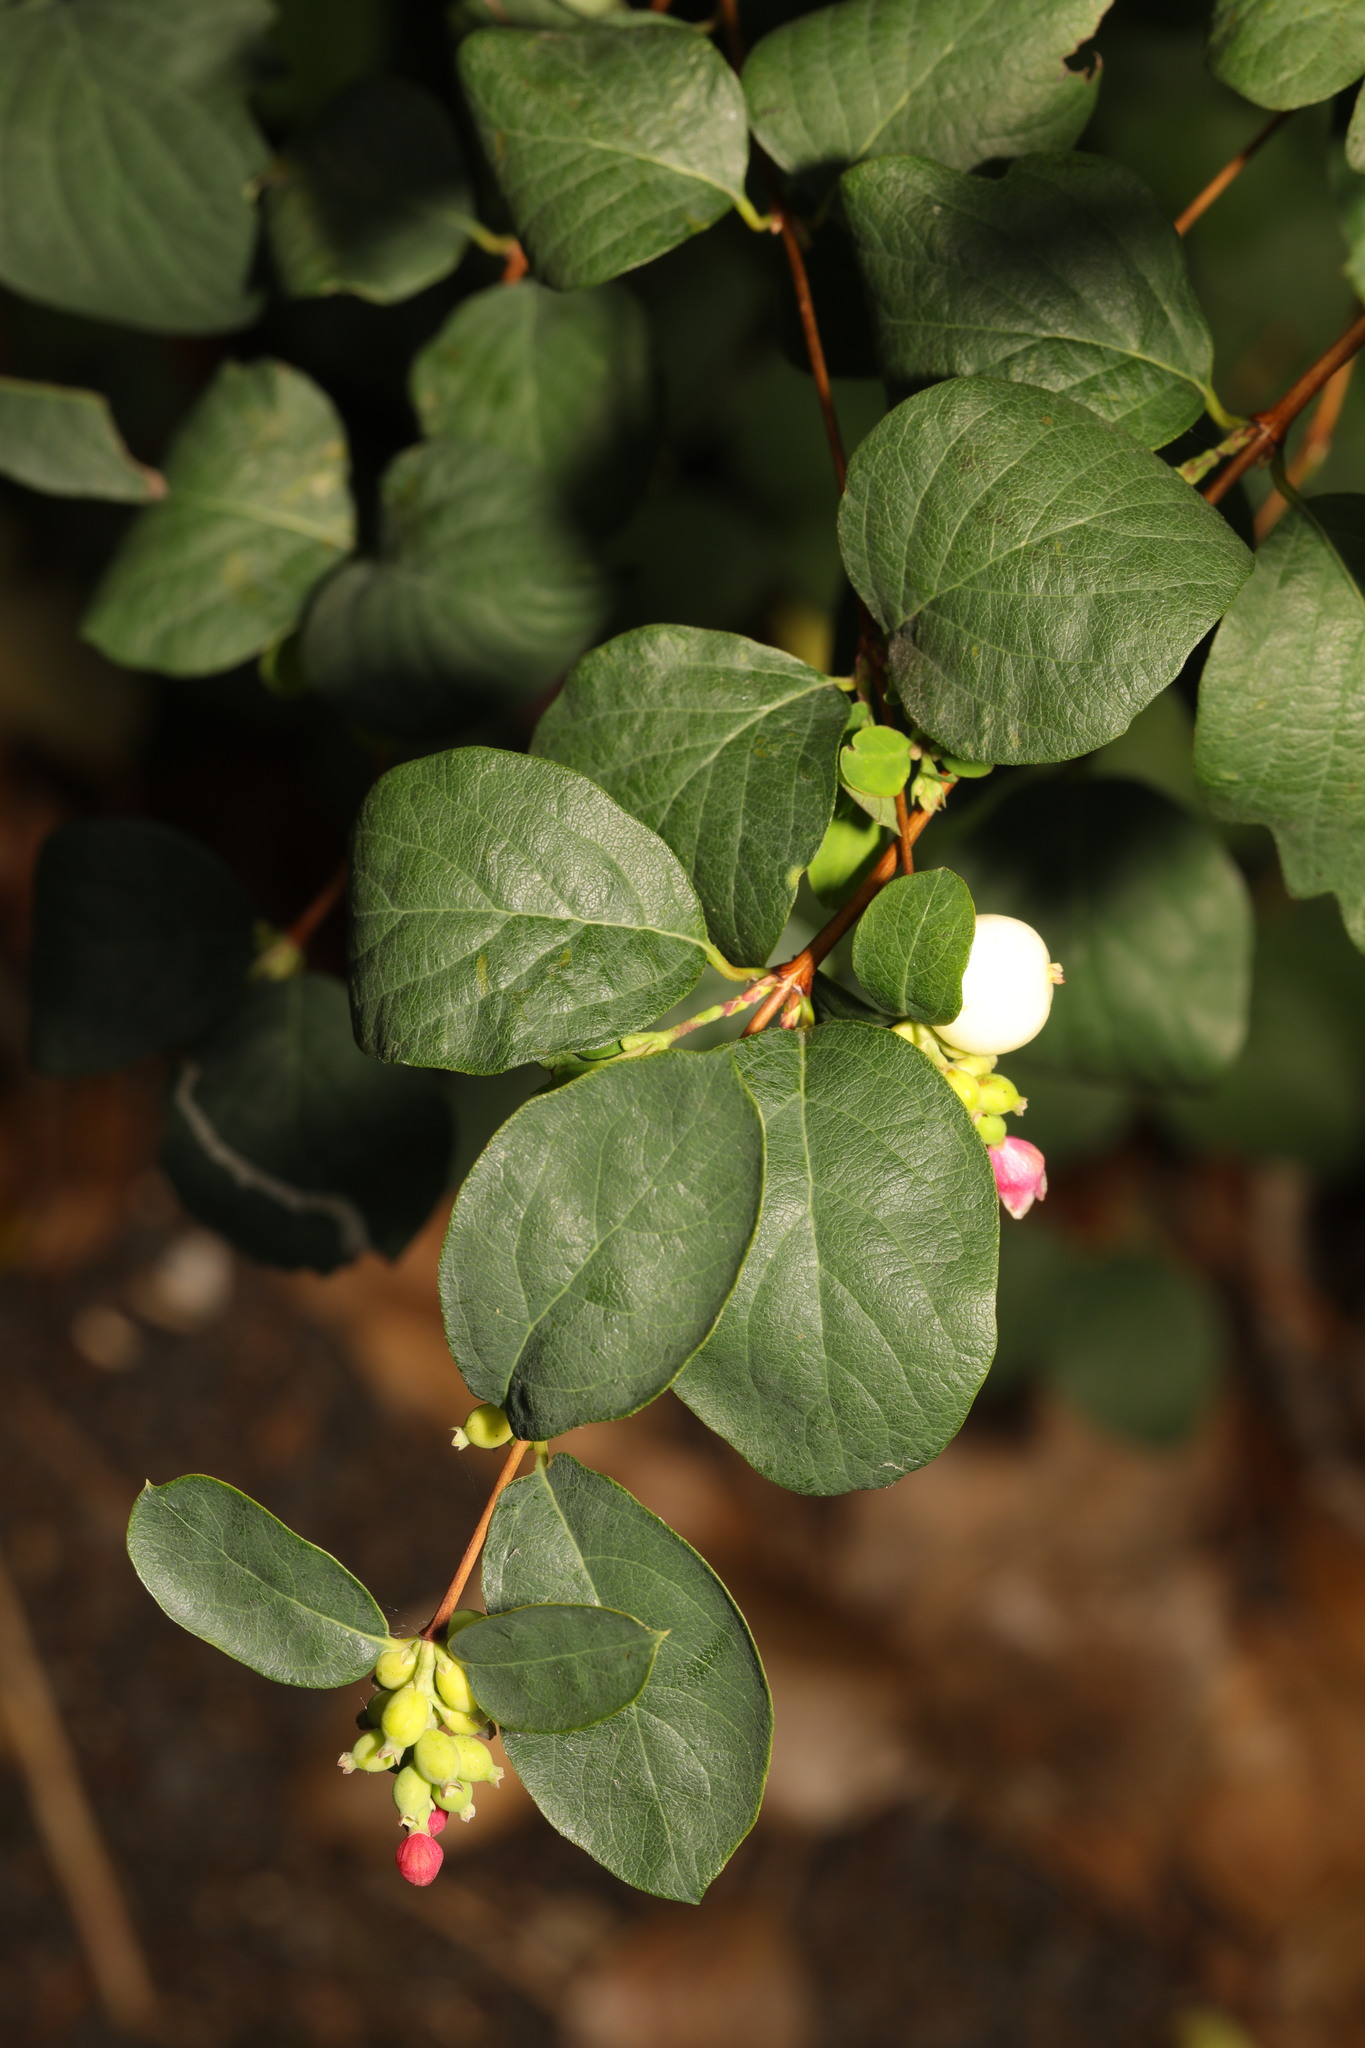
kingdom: Plantae
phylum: Tracheophyta
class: Magnoliopsida
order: Dipsacales
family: Caprifoliaceae
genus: Symphoricarpos
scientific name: Symphoricarpos albus
